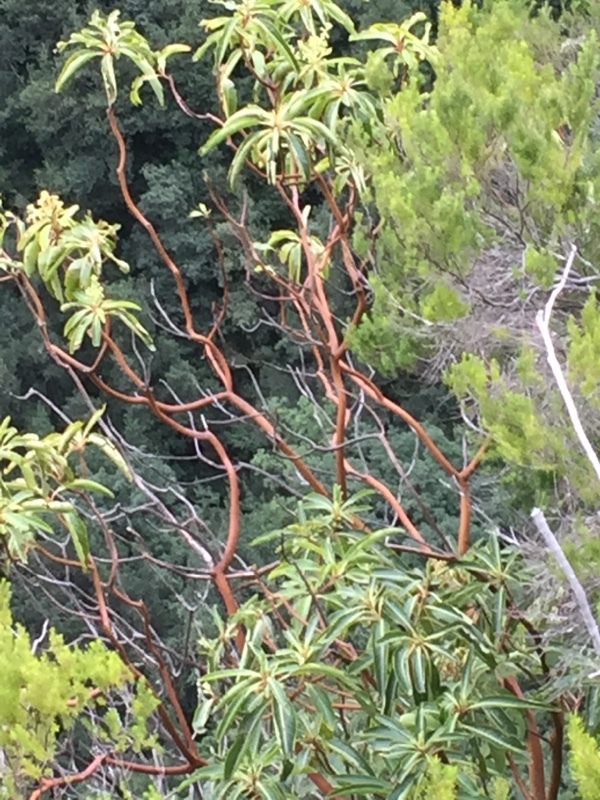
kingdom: Plantae
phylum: Tracheophyta
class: Magnoliopsida
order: Ericales
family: Ericaceae
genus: Arbutus
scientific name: Arbutus canariensis
